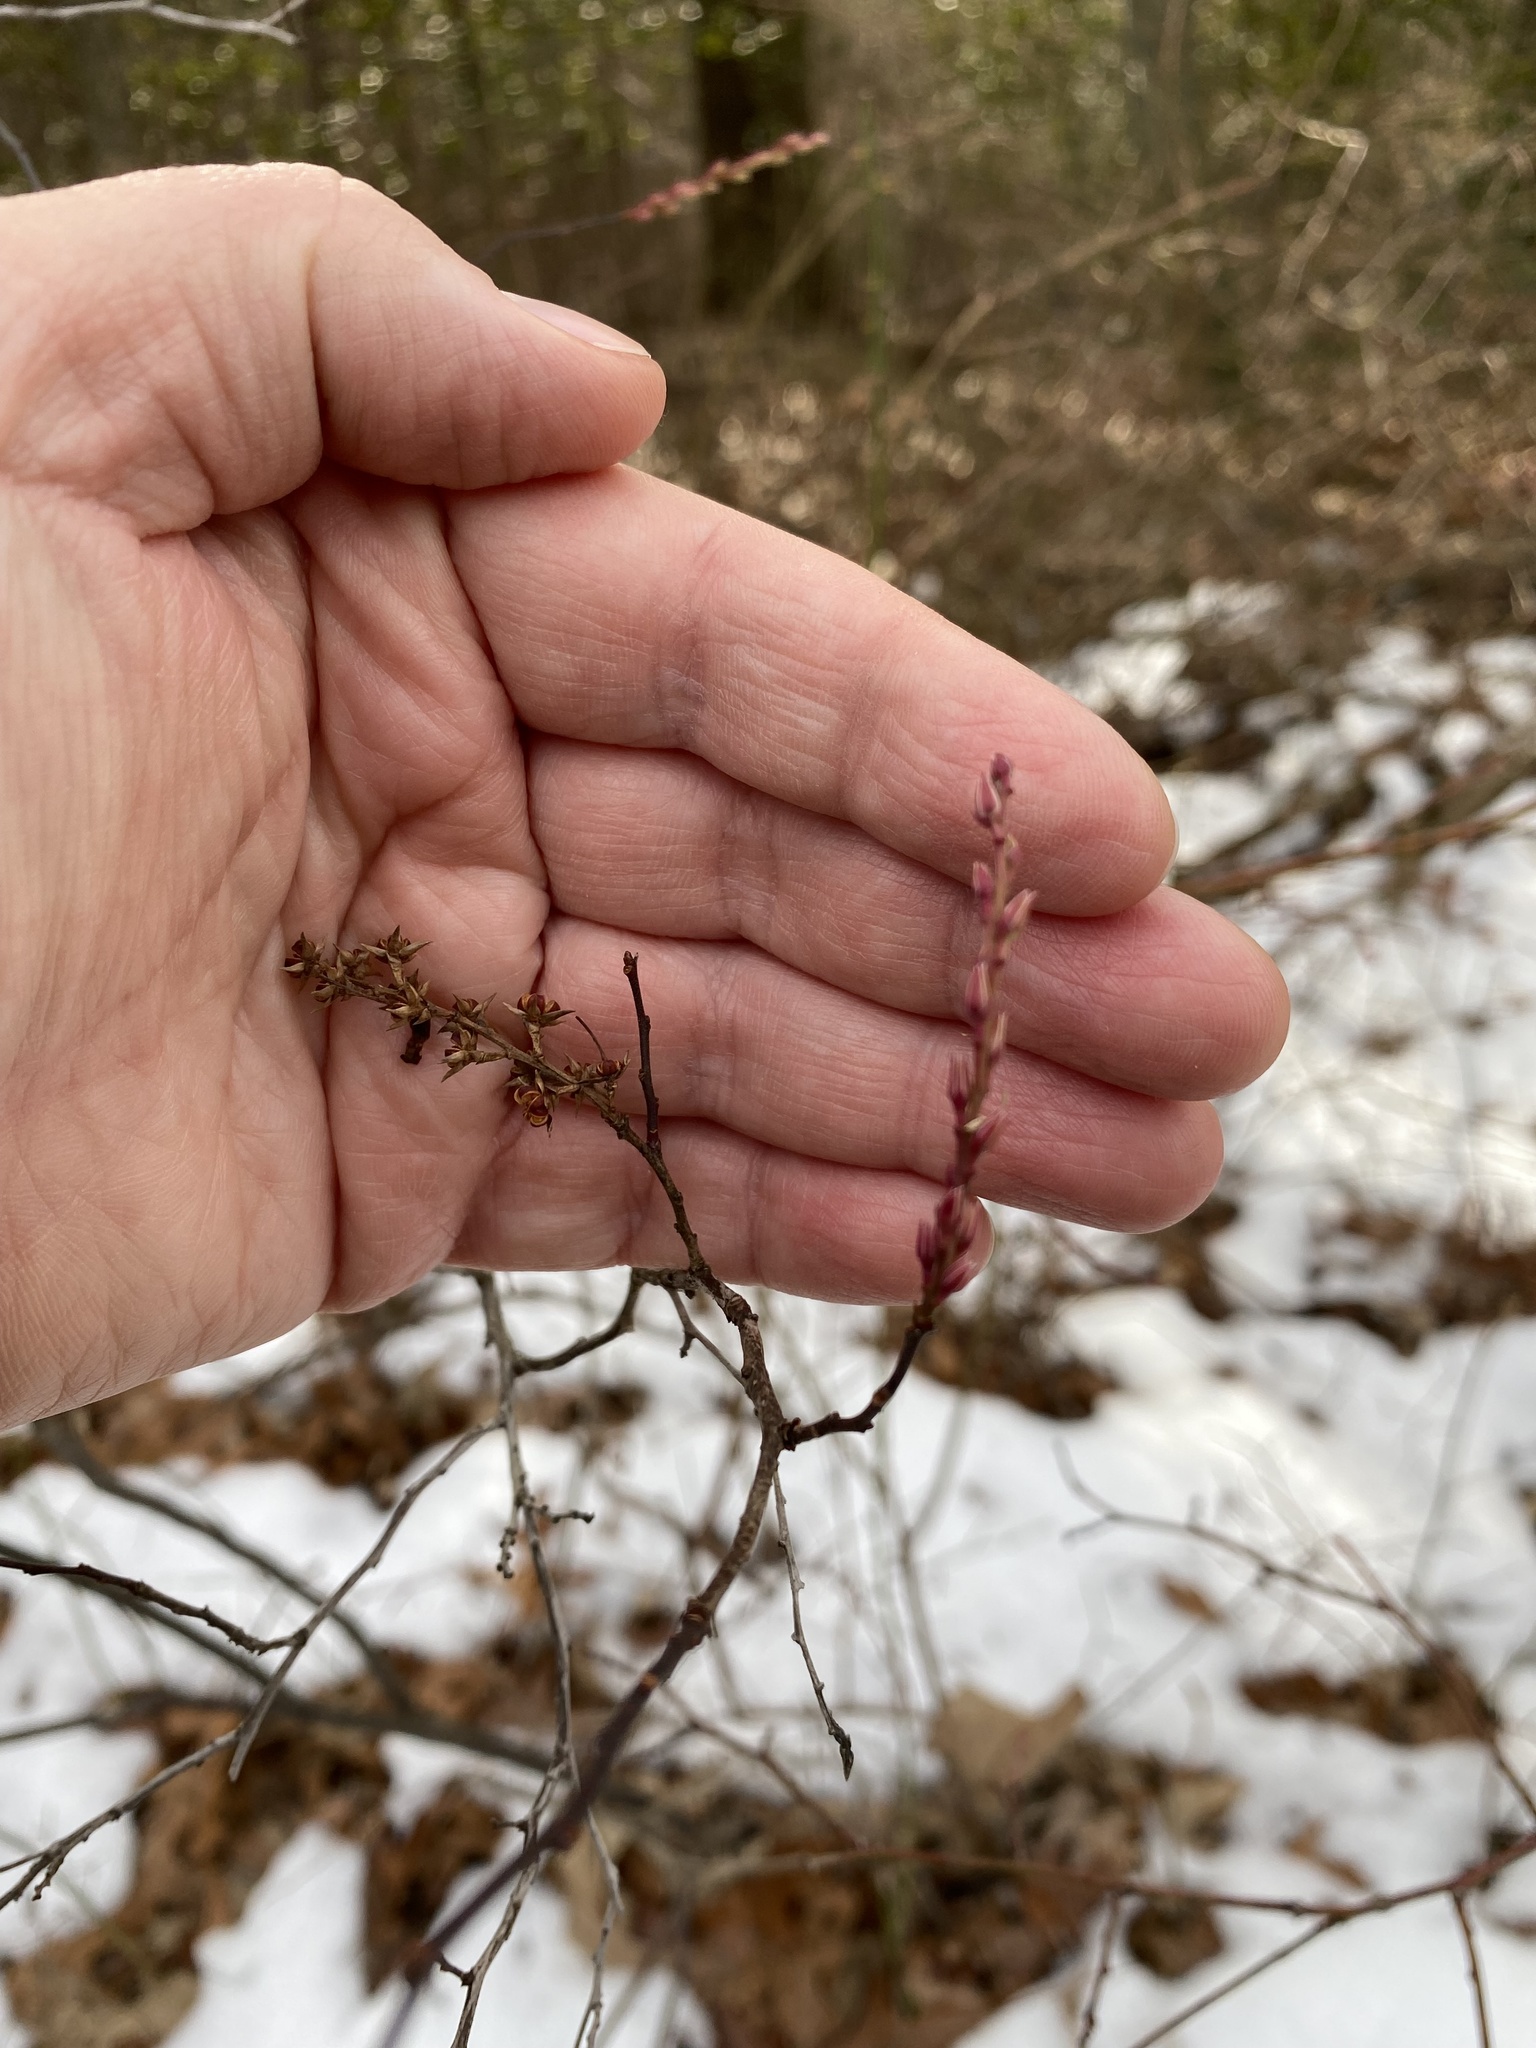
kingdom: Plantae
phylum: Tracheophyta
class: Magnoliopsida
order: Ericales
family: Ericaceae
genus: Eubotrys
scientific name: Eubotrys racemosa
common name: Fetterbush
